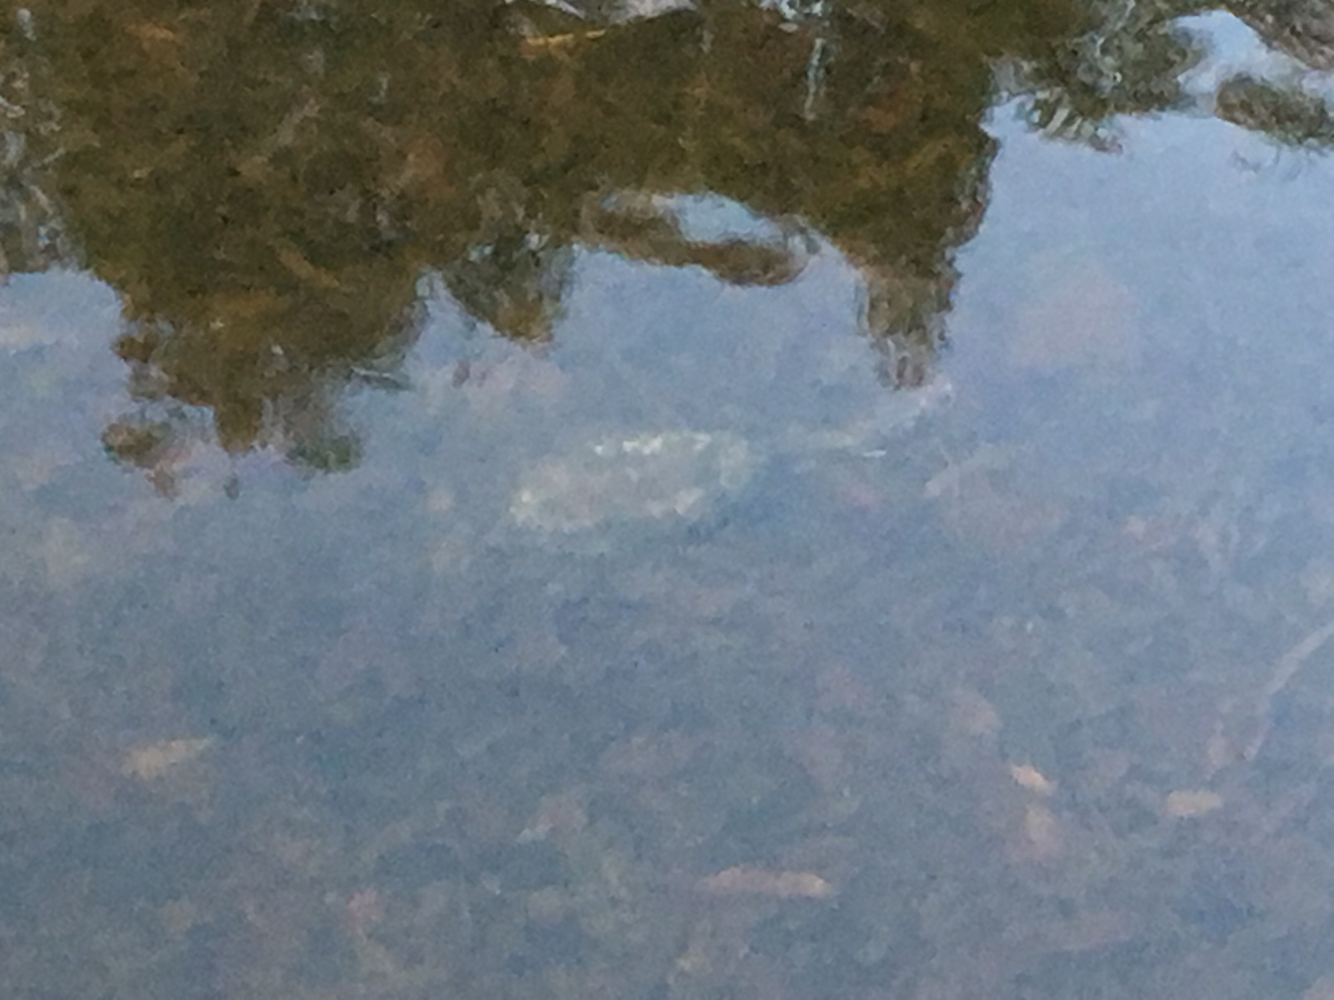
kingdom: Animalia
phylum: Chordata
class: Testudines
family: Chelidae
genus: Chelodina
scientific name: Chelodina oblonga
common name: Northern snake-necked turtle
